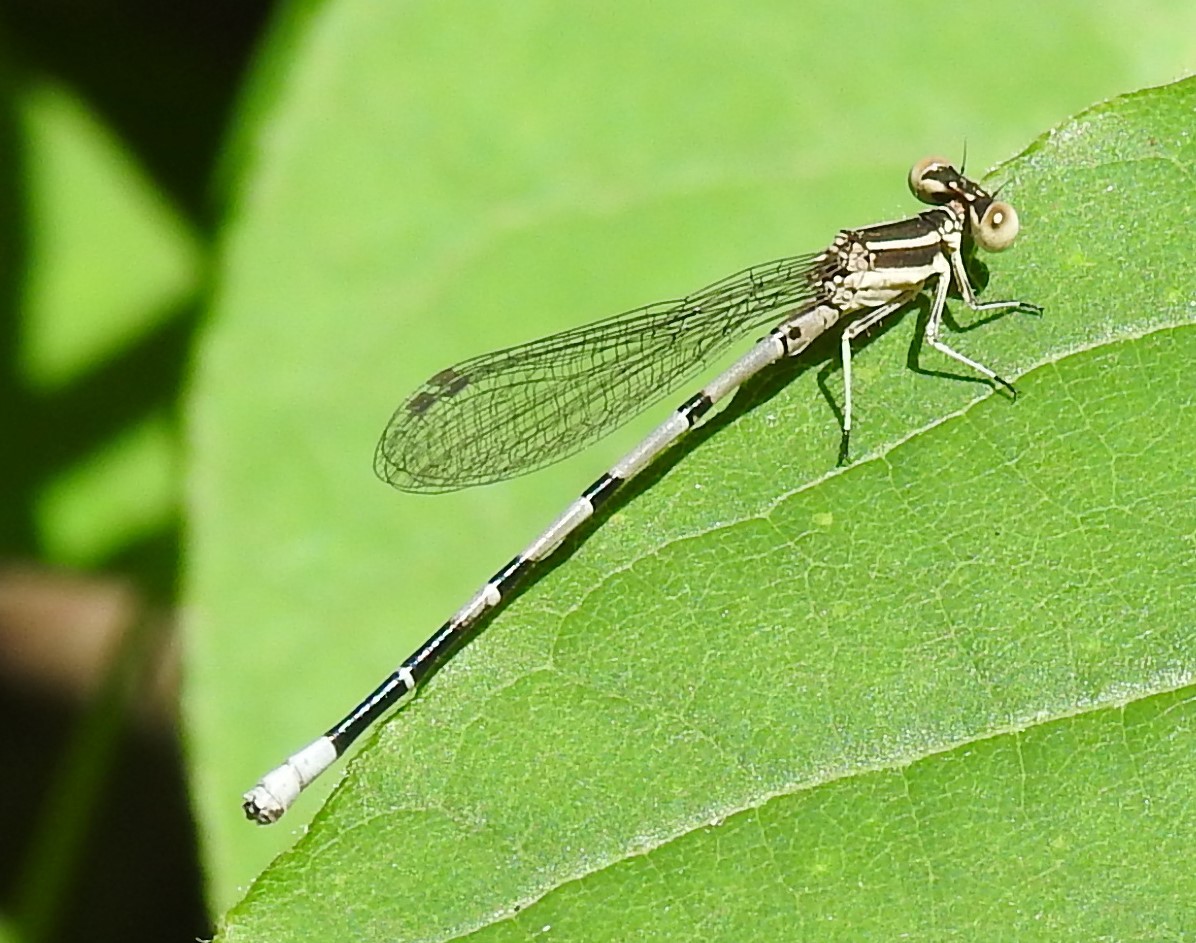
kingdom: Animalia
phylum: Arthropoda
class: Insecta
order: Odonata
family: Coenagrionidae
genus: Argia
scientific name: Argia bipunctulata
